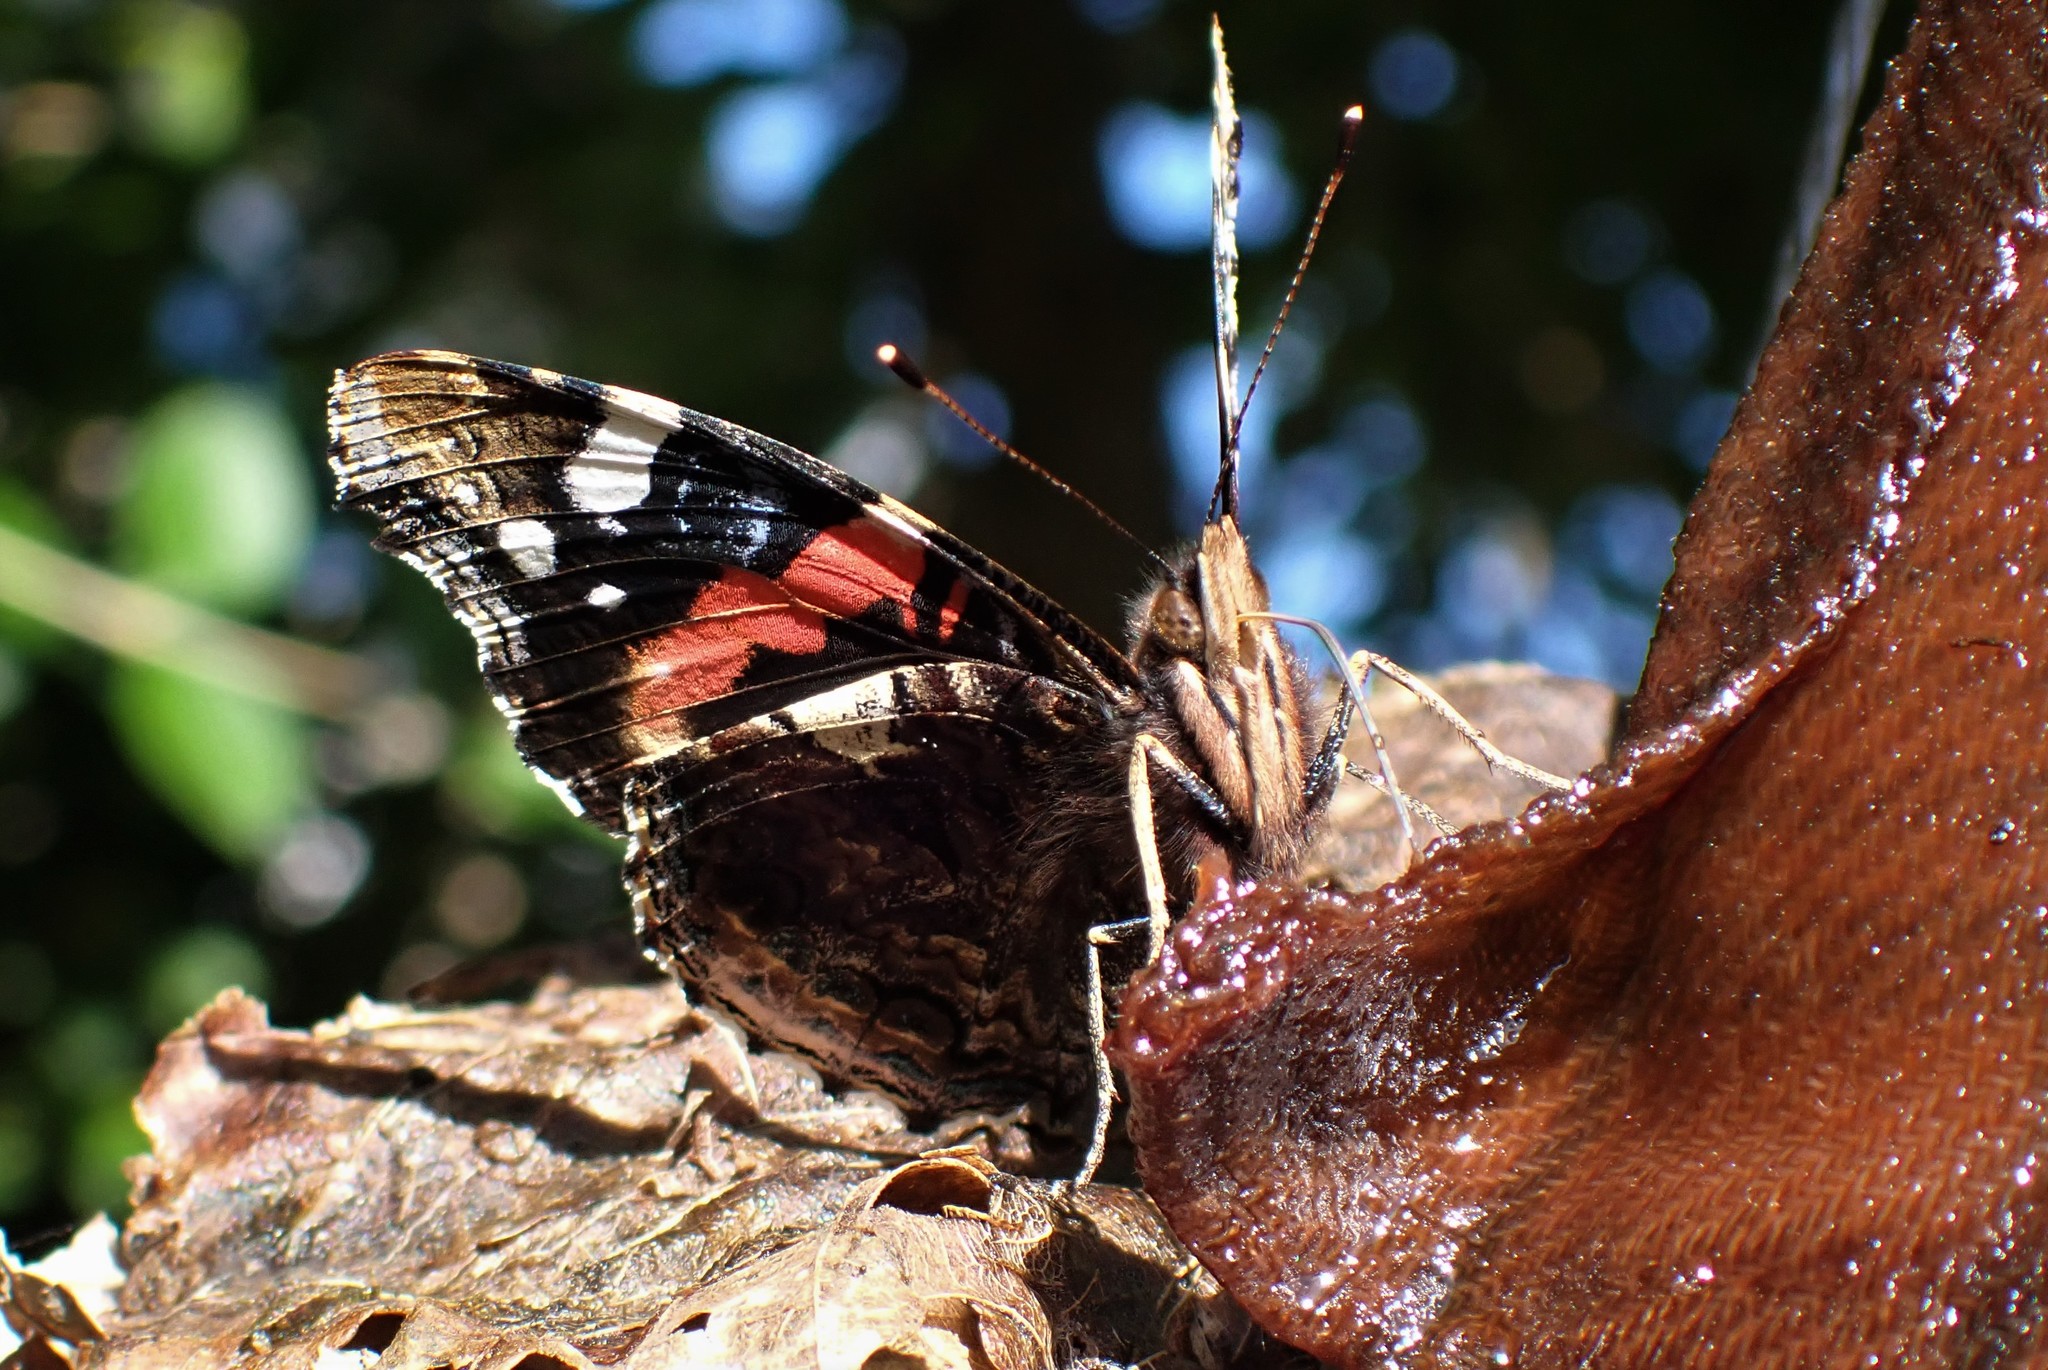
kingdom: Animalia
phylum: Arthropoda
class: Insecta
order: Lepidoptera
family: Nymphalidae
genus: Vanessa
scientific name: Vanessa atalanta
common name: Red admiral
